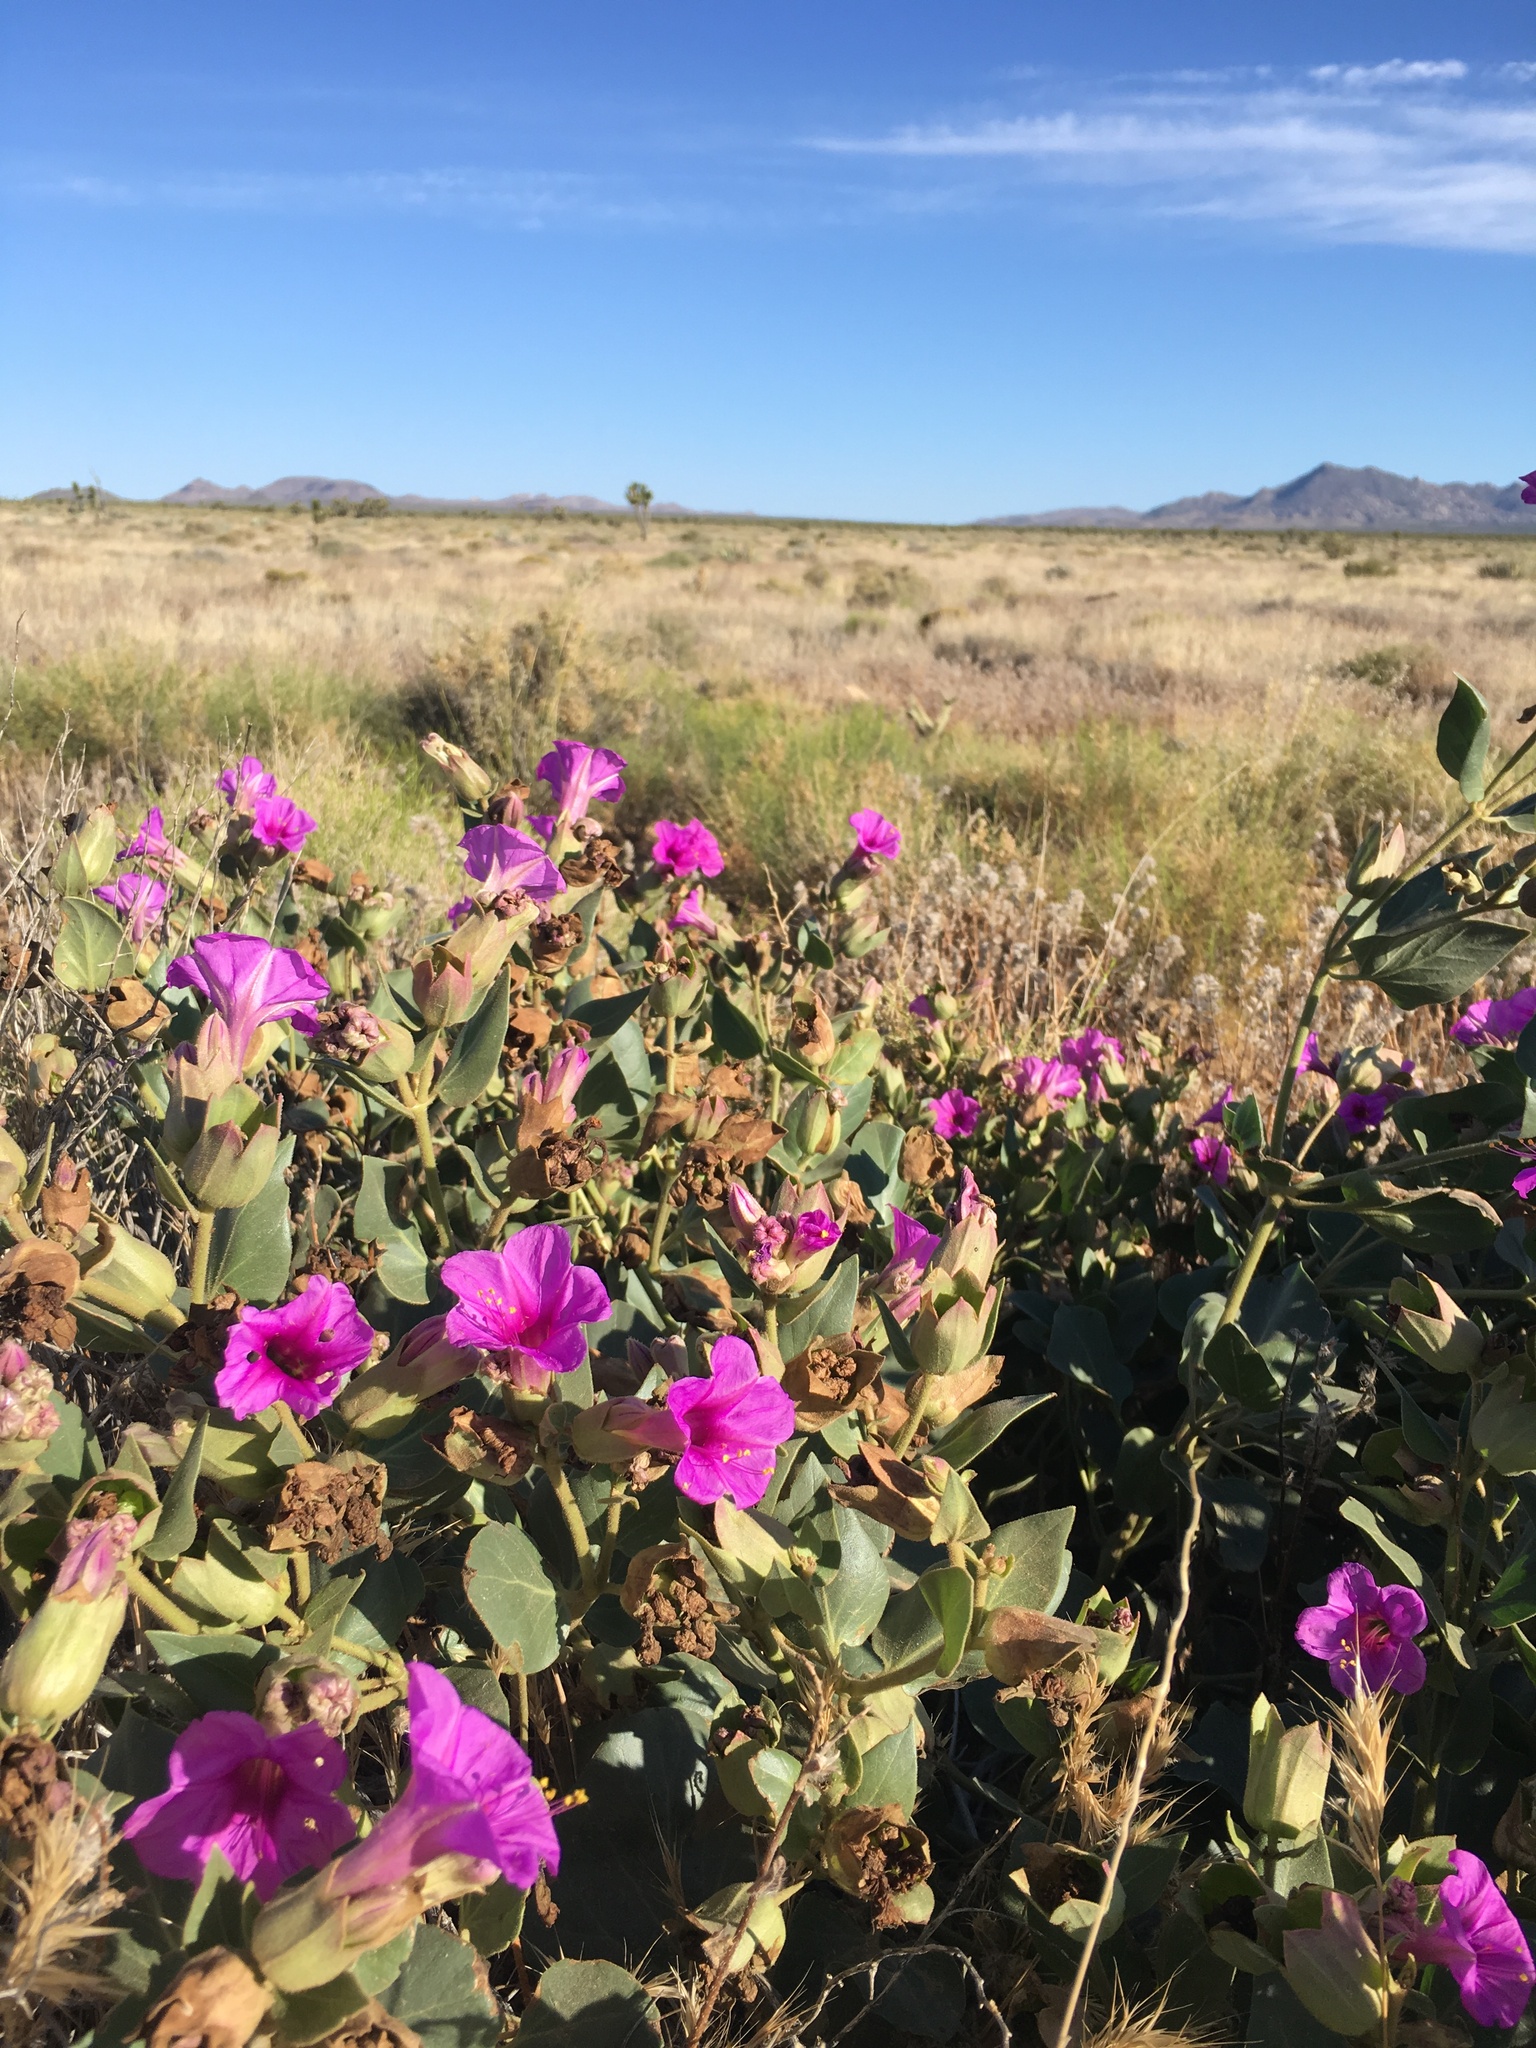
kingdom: Plantae
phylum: Tracheophyta
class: Magnoliopsida
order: Caryophyllales
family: Nyctaginaceae
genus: Mirabilis
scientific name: Mirabilis multiflora
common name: Froebel's four-o'clock
